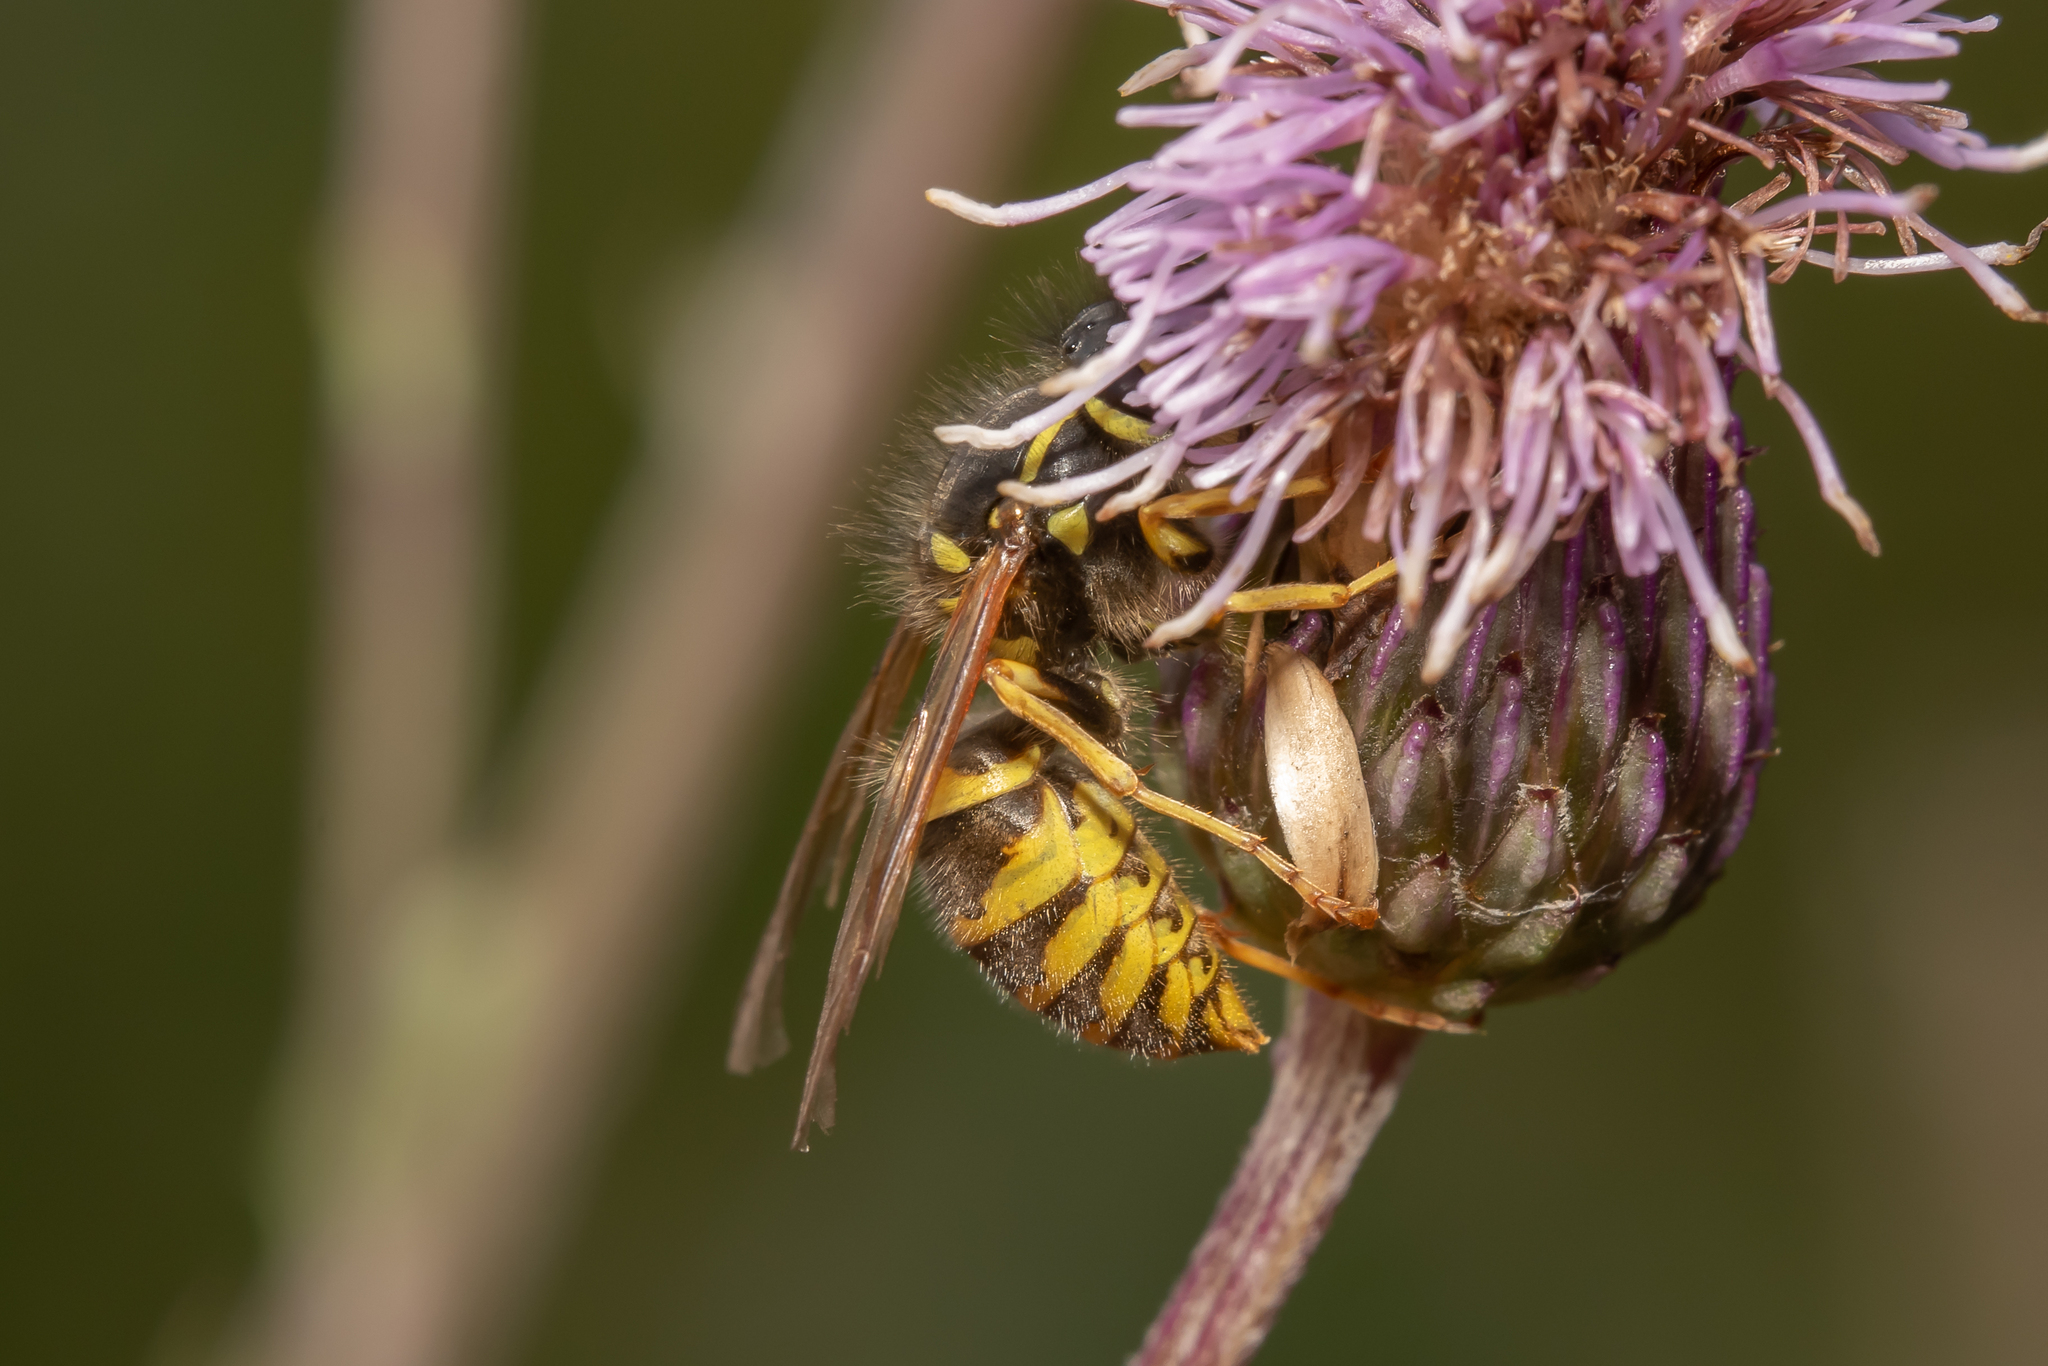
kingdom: Animalia
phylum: Arthropoda
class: Insecta
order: Hymenoptera
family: Vespidae
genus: Vespula
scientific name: Vespula vulgaris
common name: Common wasp
